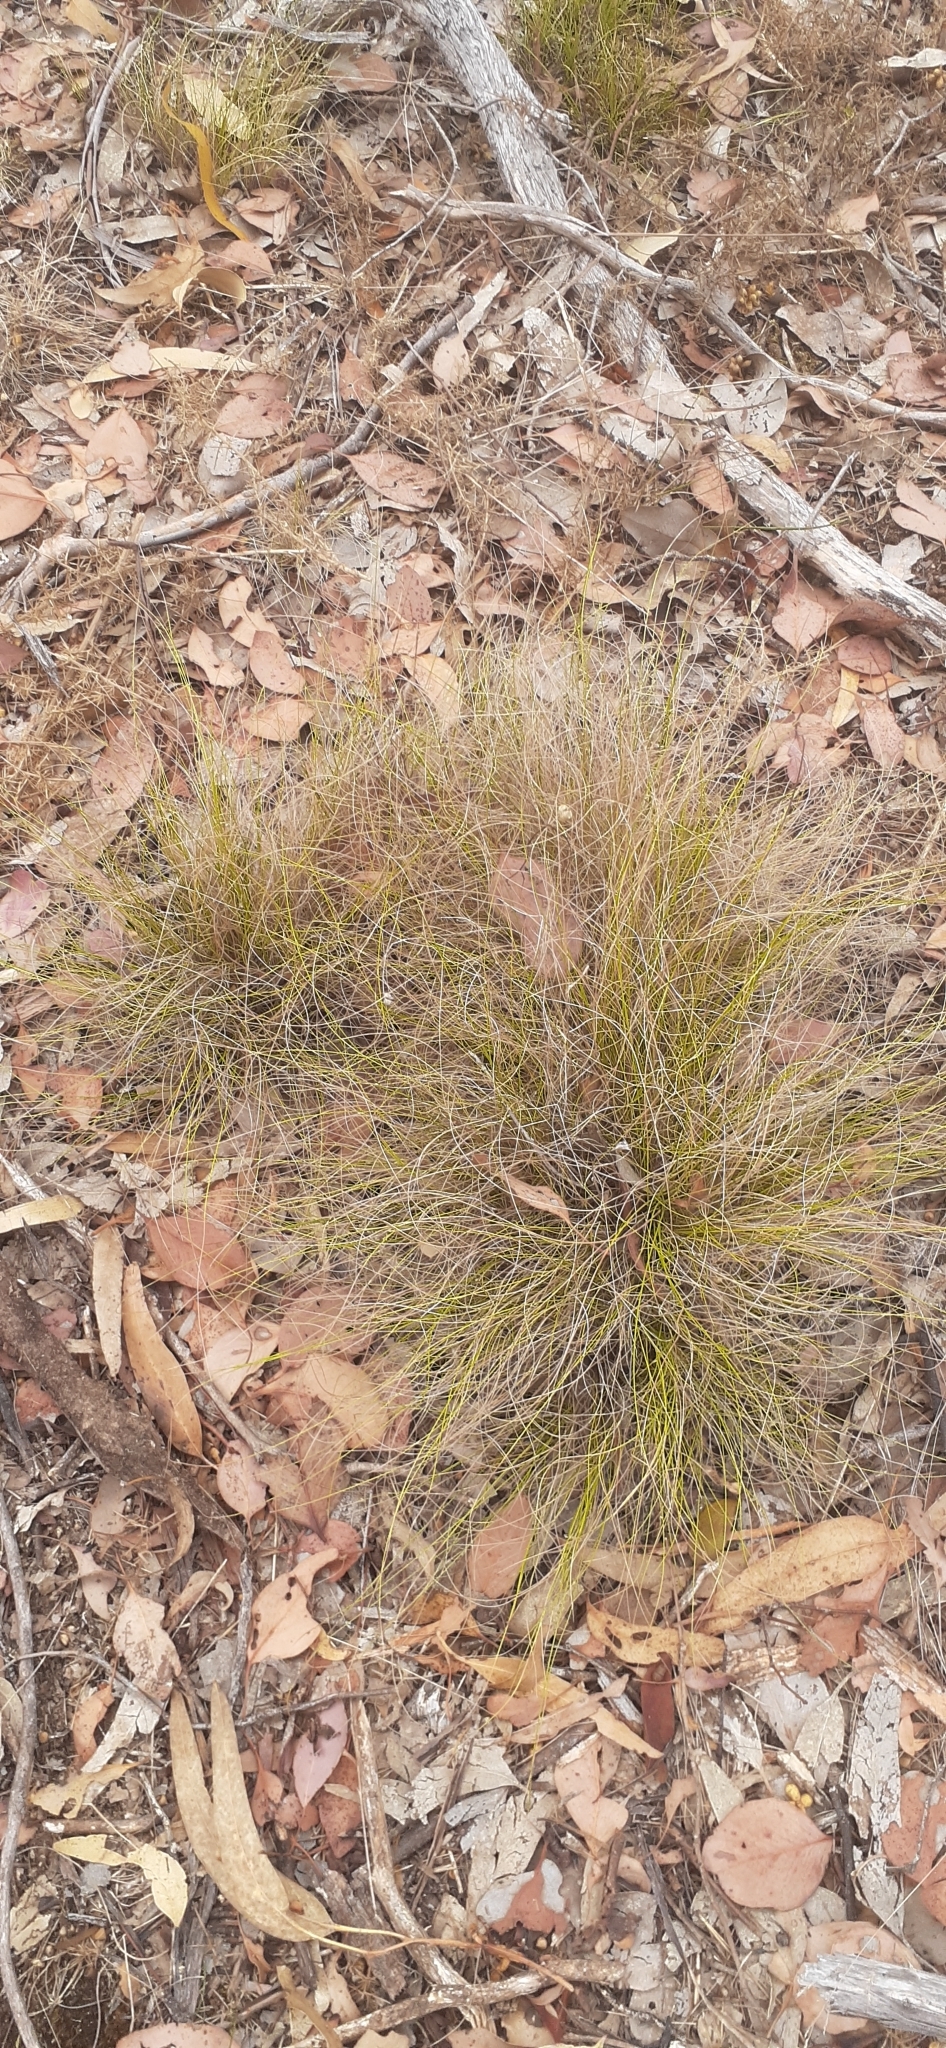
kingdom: Plantae
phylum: Tracheophyta
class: Liliopsida
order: Poales
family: Poaceae
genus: Rytidosperma
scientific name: Rytidosperma pallidum
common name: Red-anther wallaby grass
